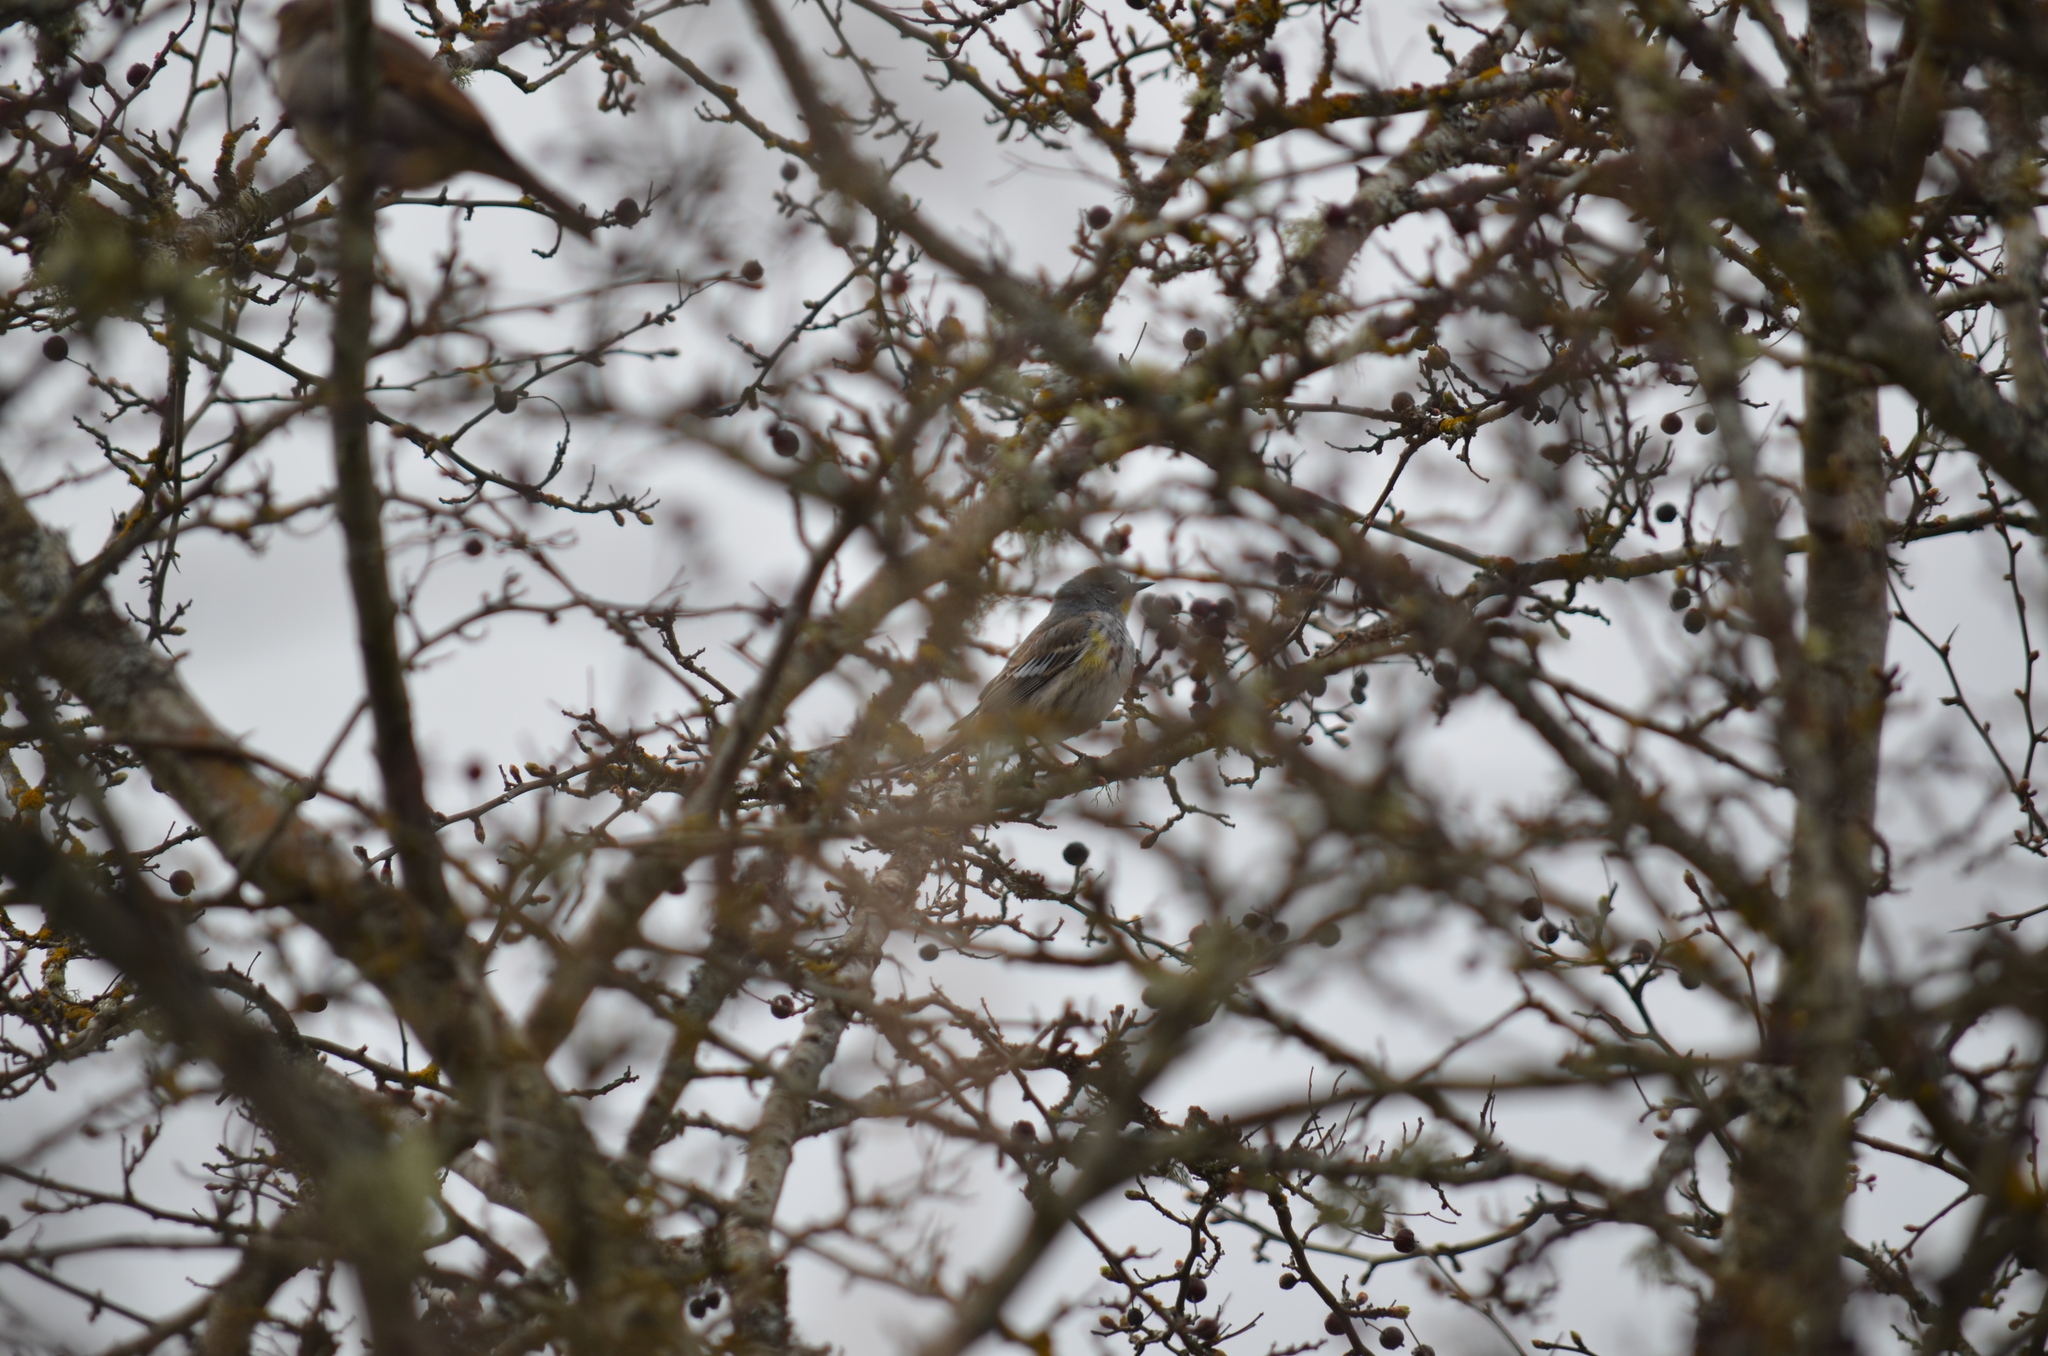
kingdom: Animalia
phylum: Chordata
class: Aves
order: Passeriformes
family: Parulidae
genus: Setophaga
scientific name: Setophaga coronata
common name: Myrtle warbler
